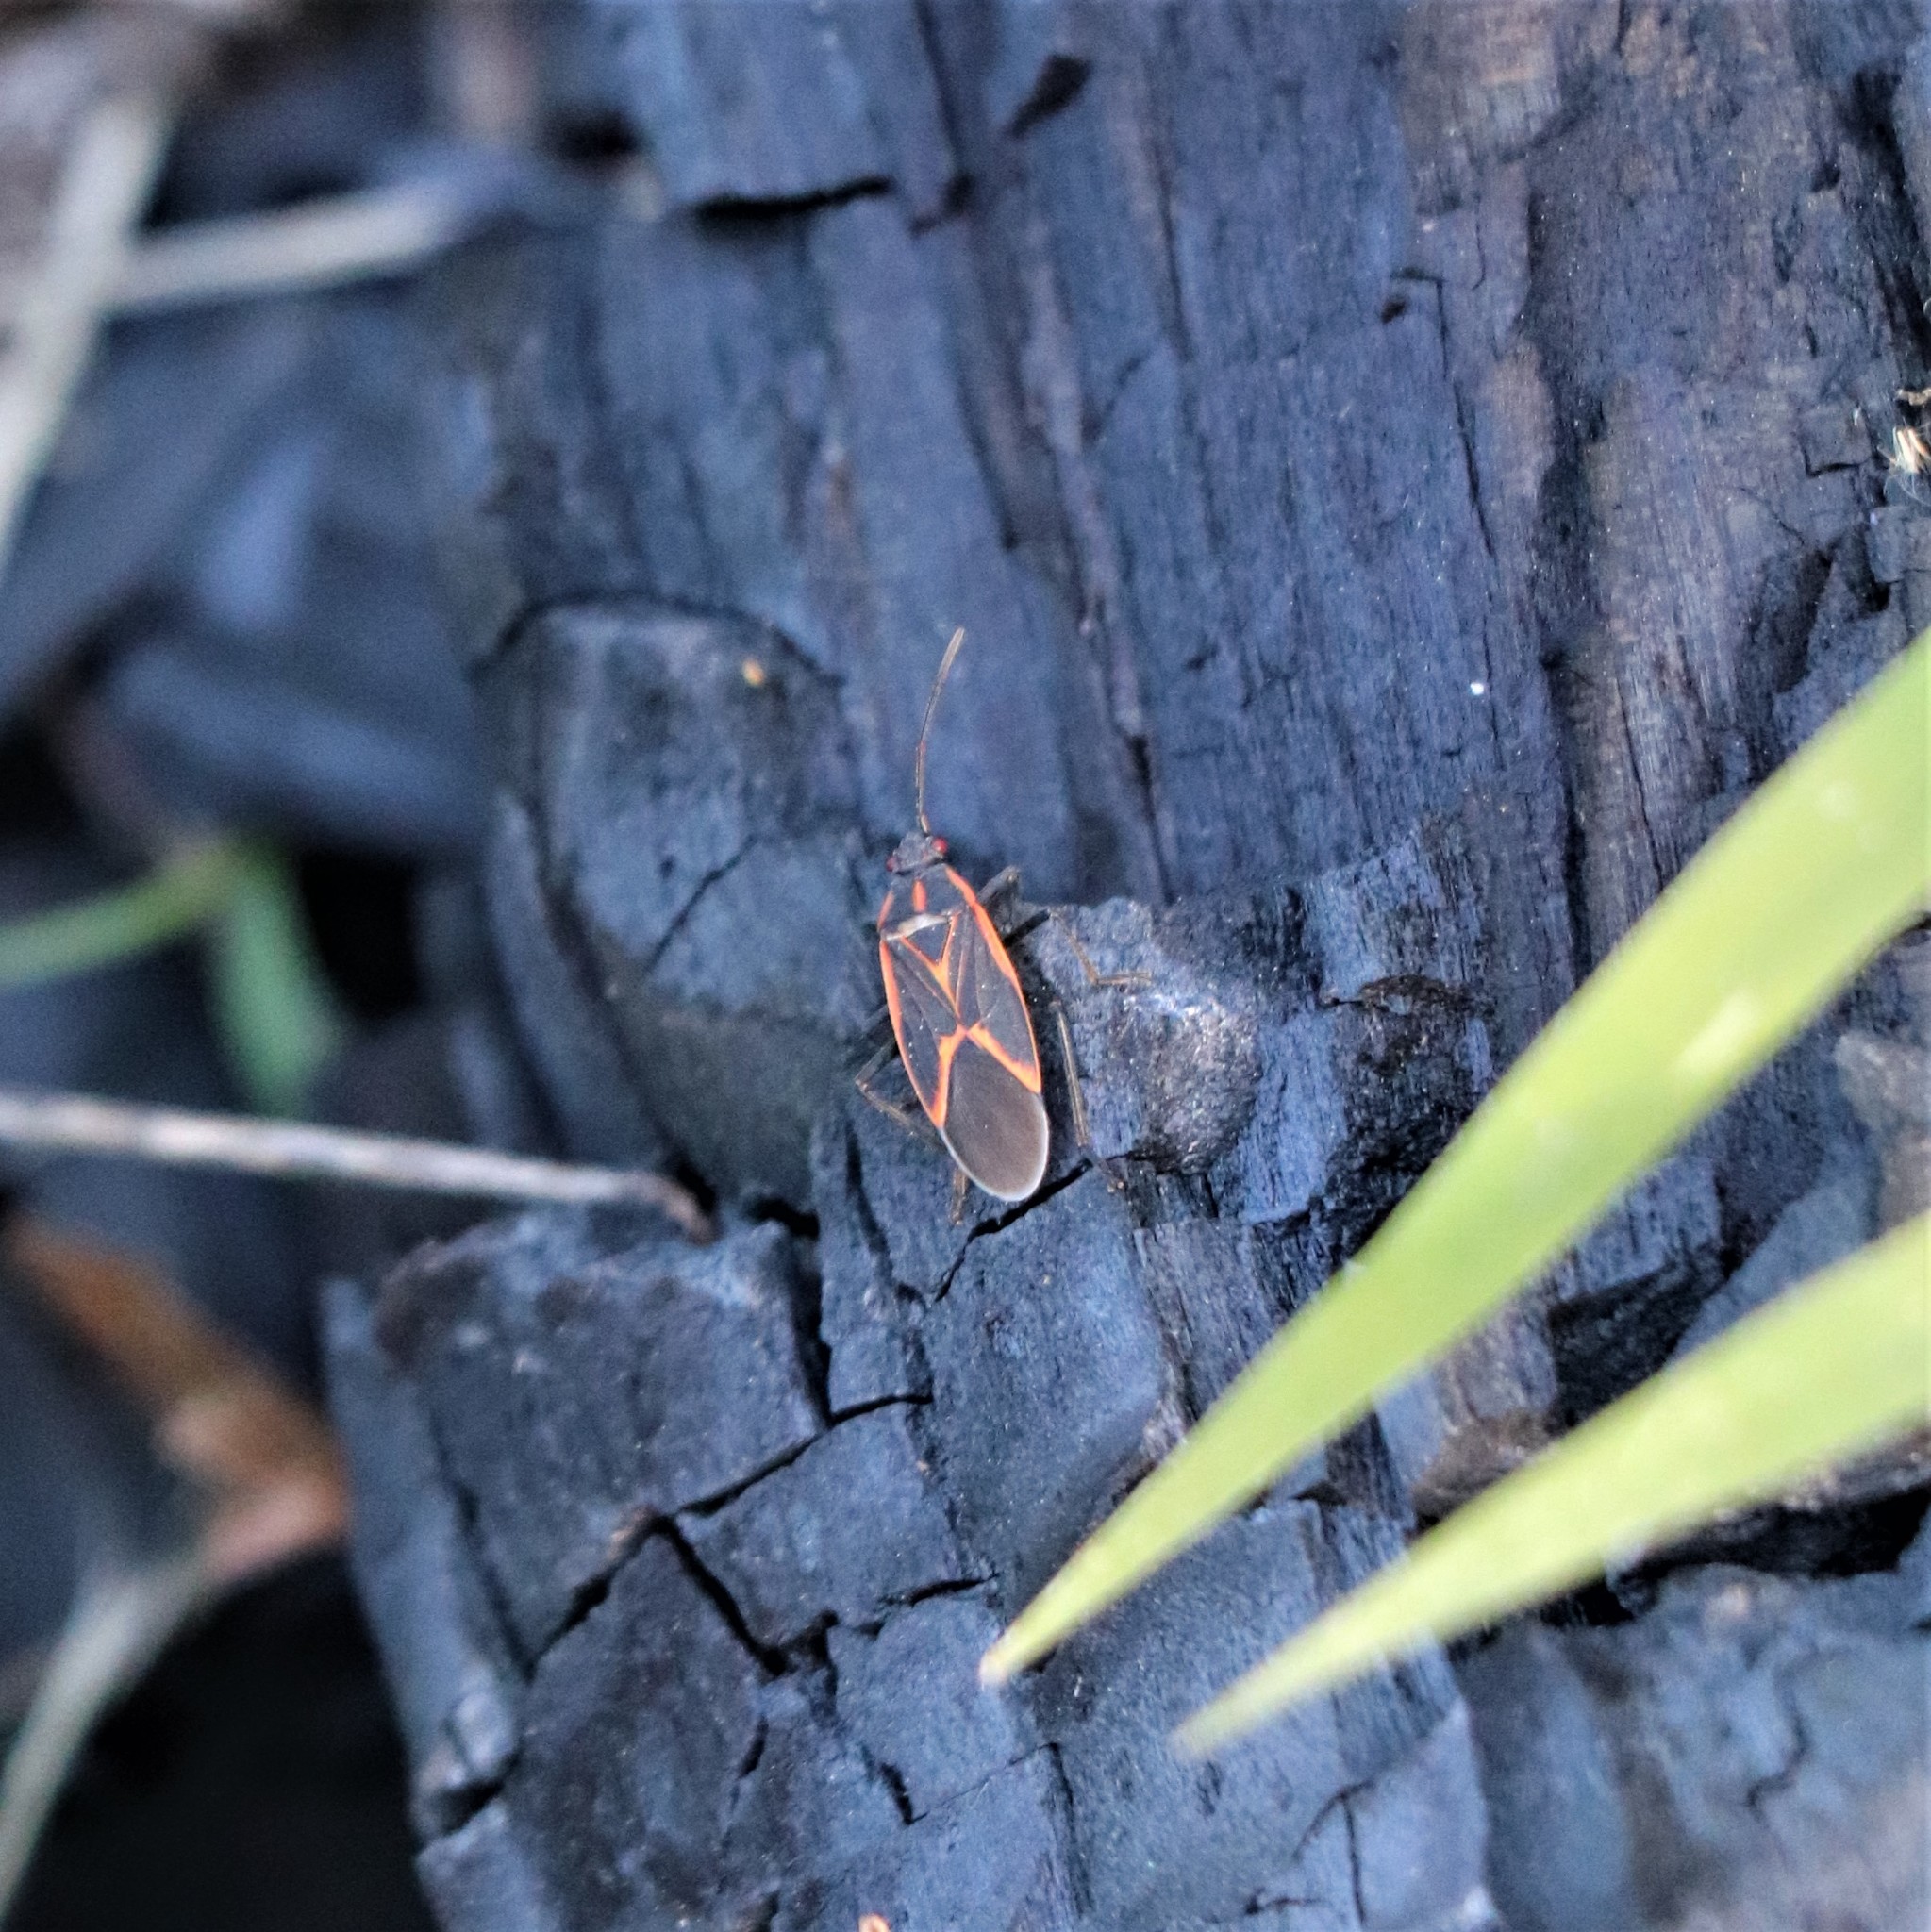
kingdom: Animalia
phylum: Arthropoda
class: Insecta
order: Hemiptera
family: Rhopalidae
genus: Boisea
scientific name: Boisea trivittata
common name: Boxelder bug
